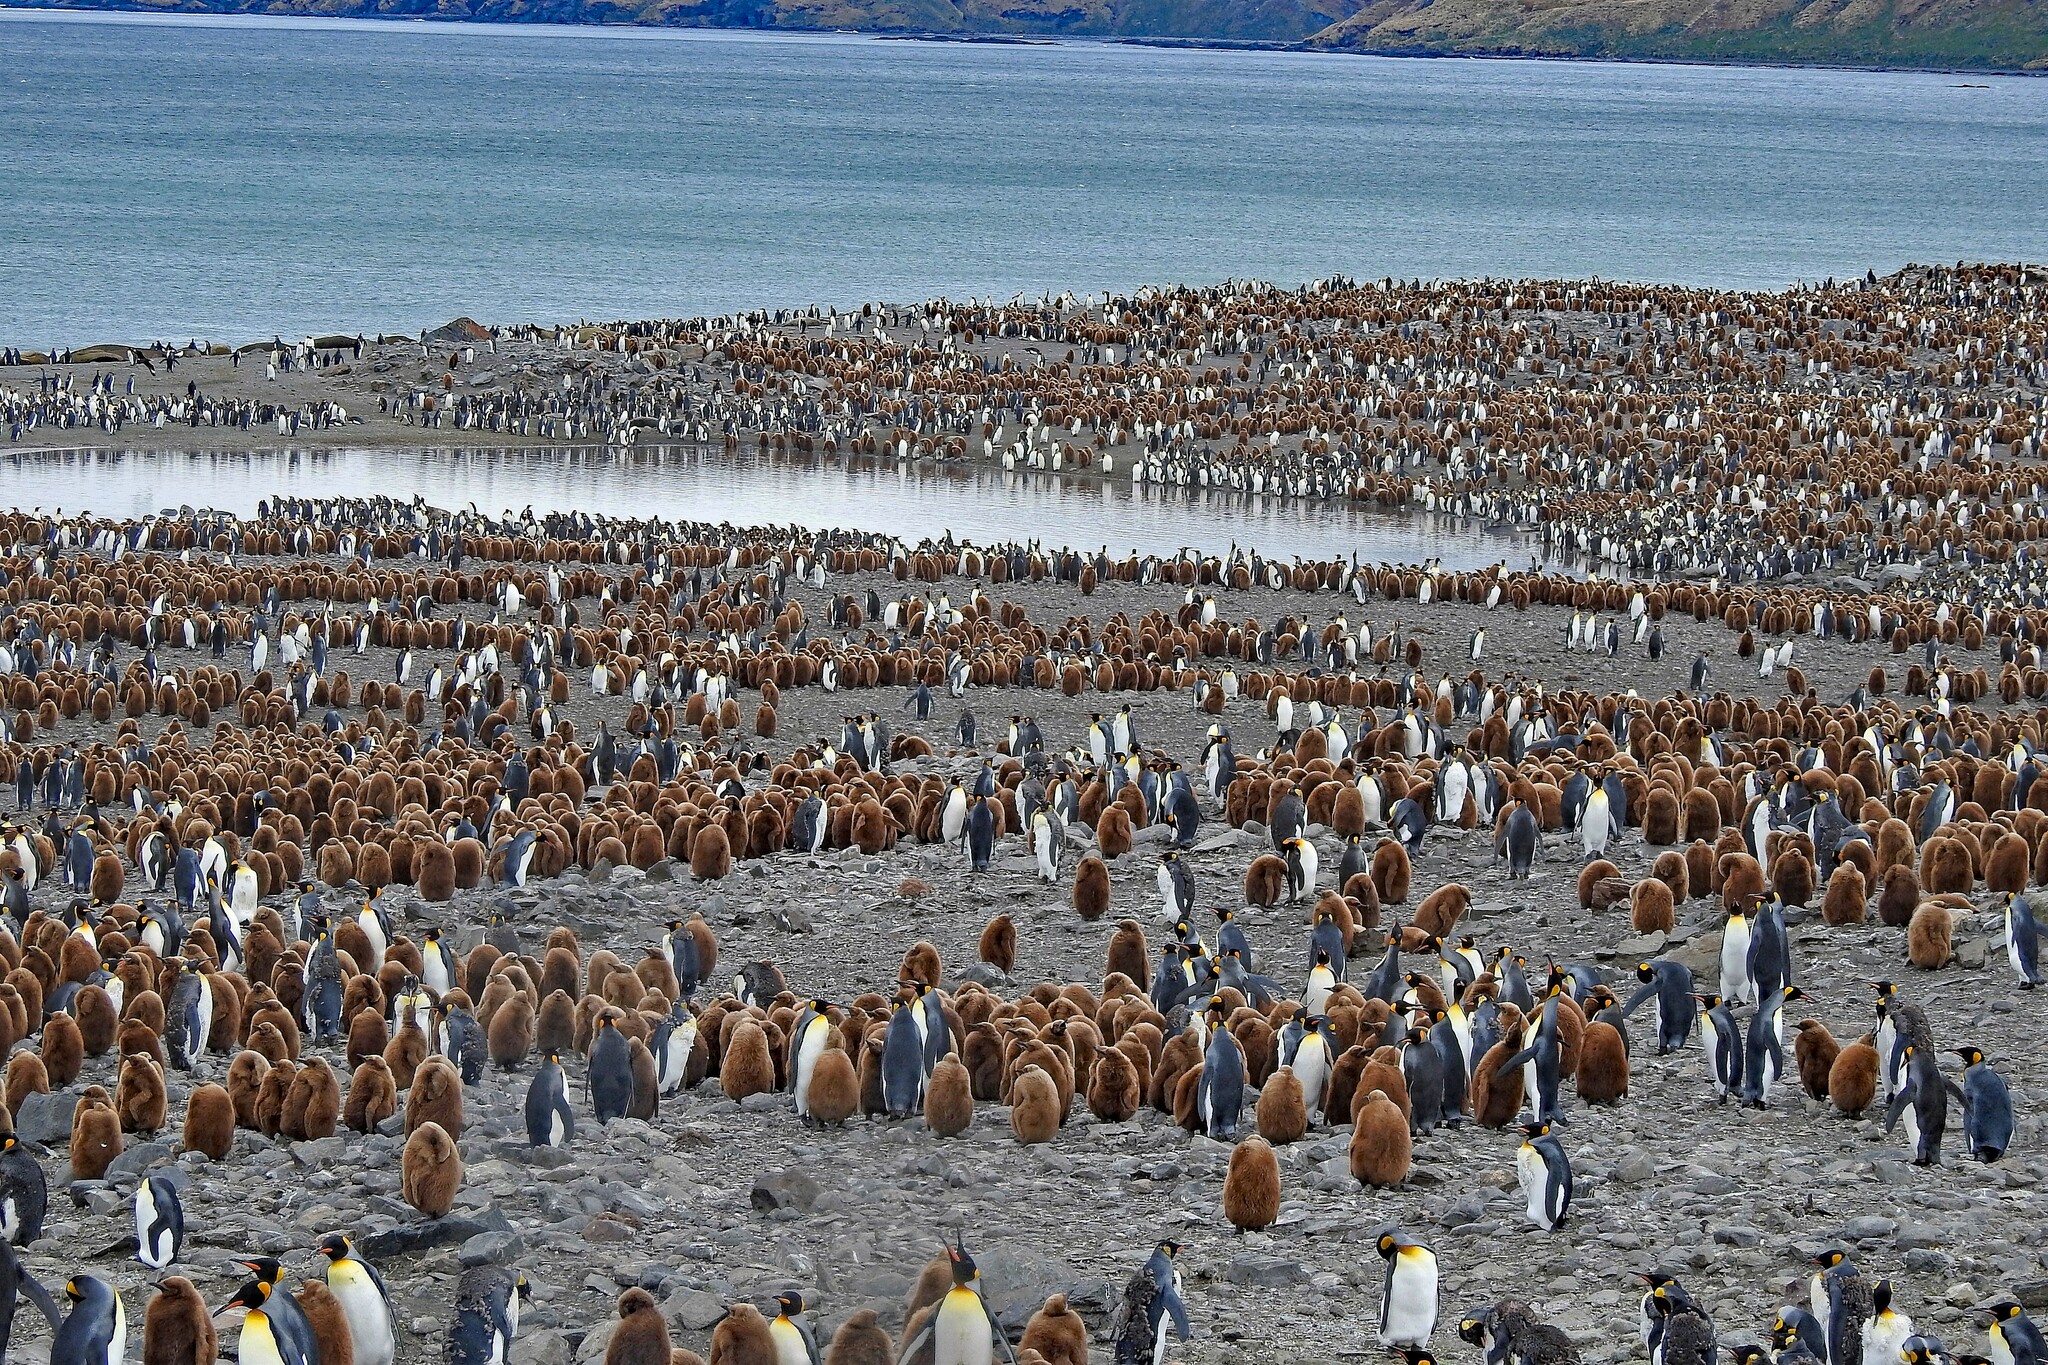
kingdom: Animalia
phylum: Chordata
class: Aves
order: Sphenisciformes
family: Spheniscidae
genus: Aptenodytes
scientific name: Aptenodytes patagonicus
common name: King penguin
